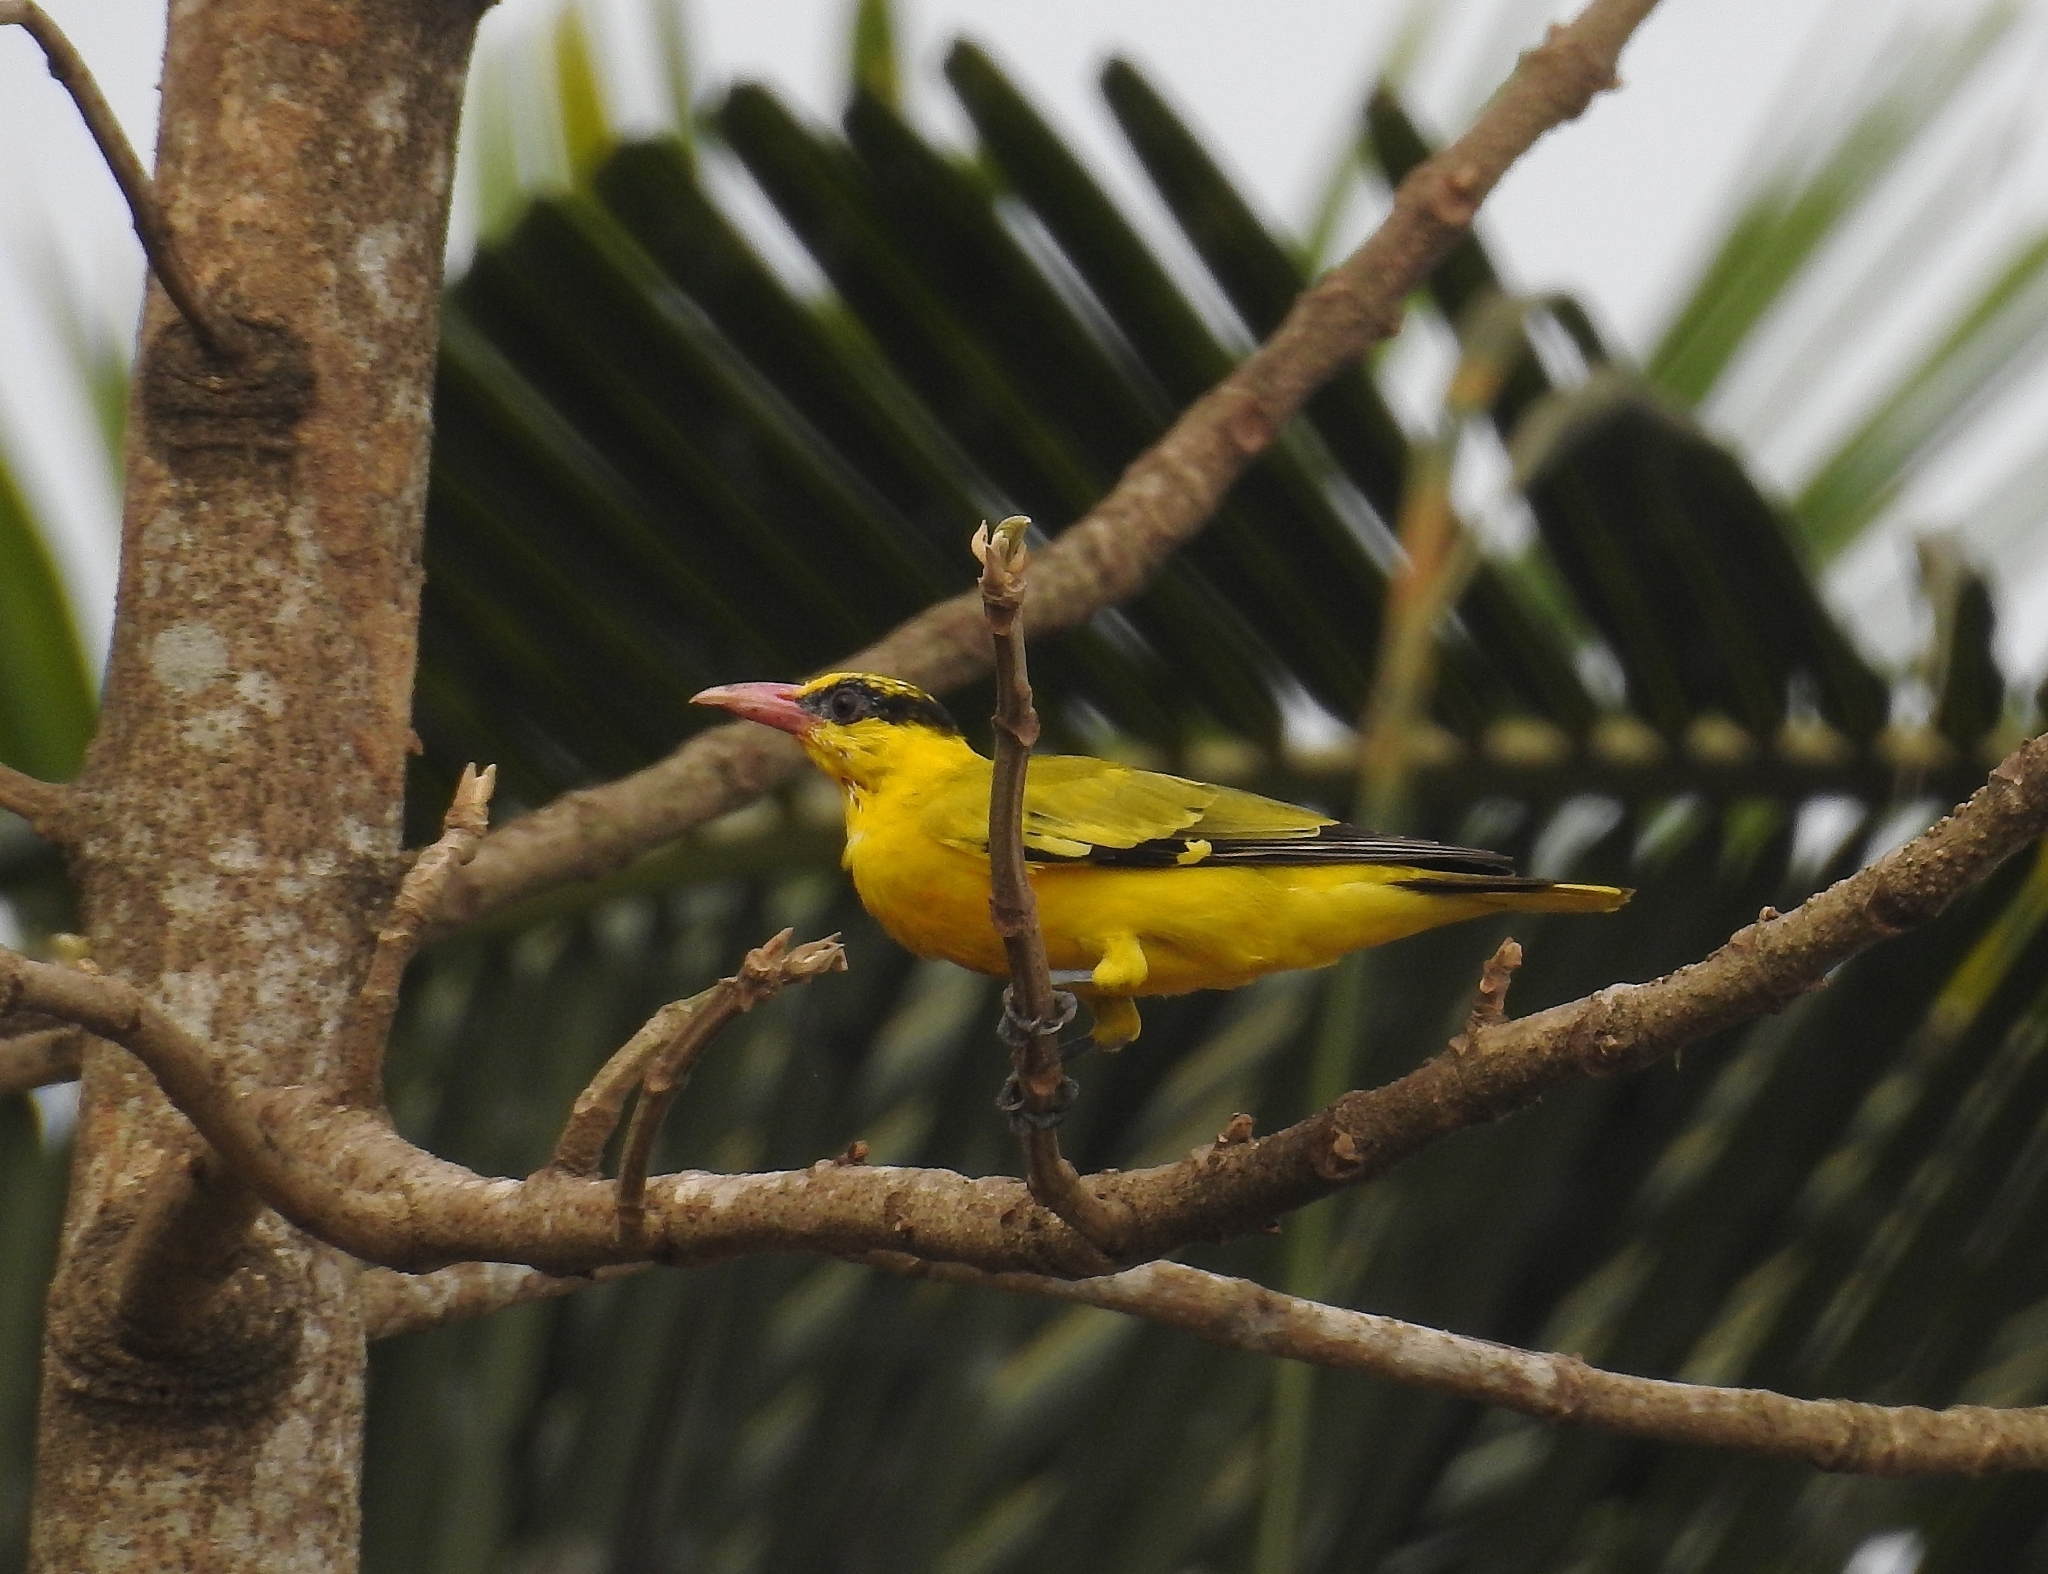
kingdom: Animalia
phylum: Chordata
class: Aves
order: Passeriformes
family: Oriolidae
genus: Oriolus
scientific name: Oriolus chinensis
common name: Black-naped oriole
